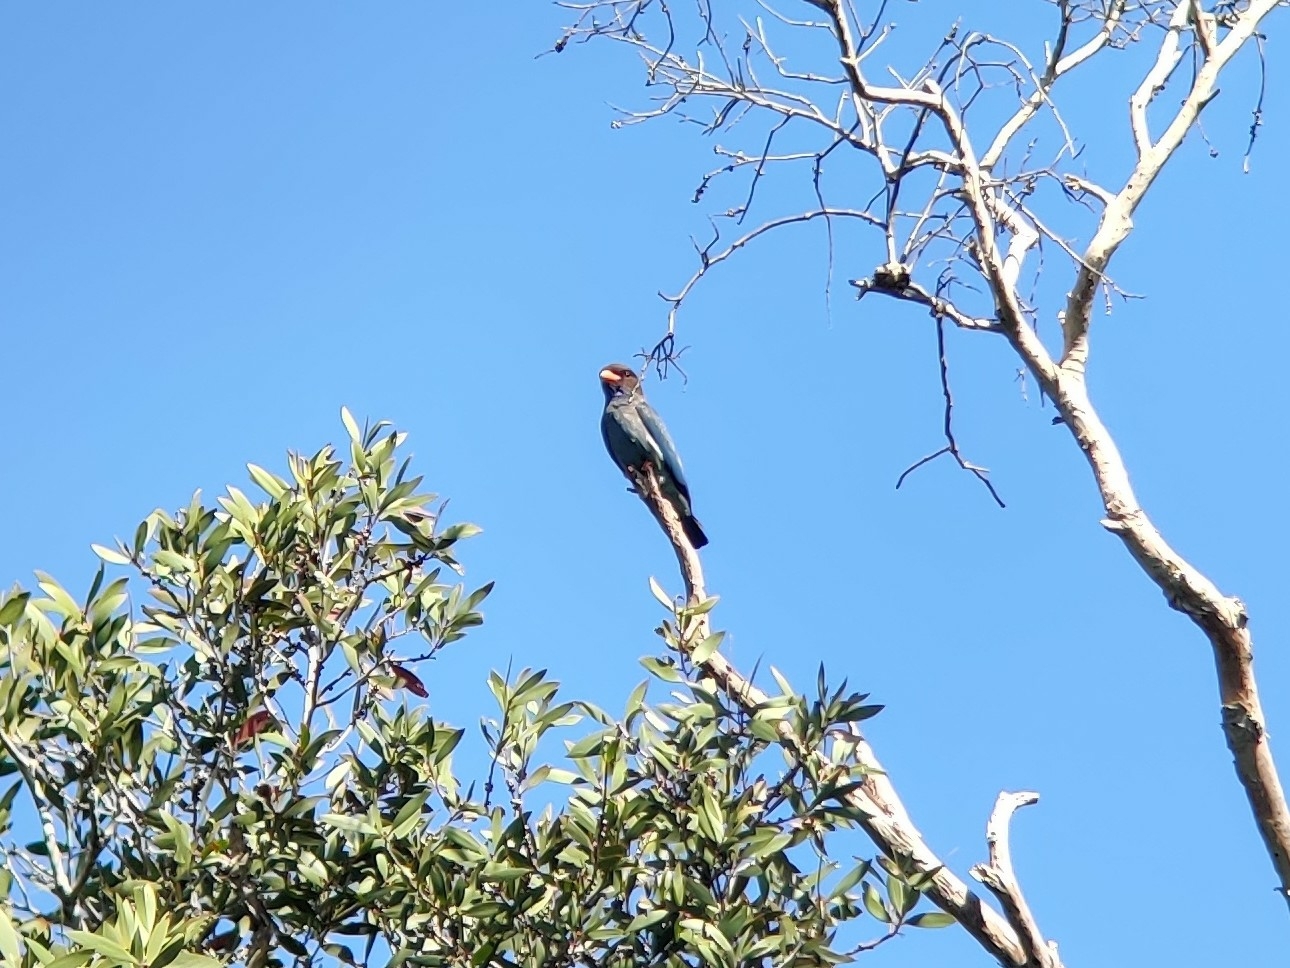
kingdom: Animalia
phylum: Chordata
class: Aves
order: Coraciiformes
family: Coraciidae
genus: Eurystomus
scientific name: Eurystomus orientalis
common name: Oriental dollarbird
